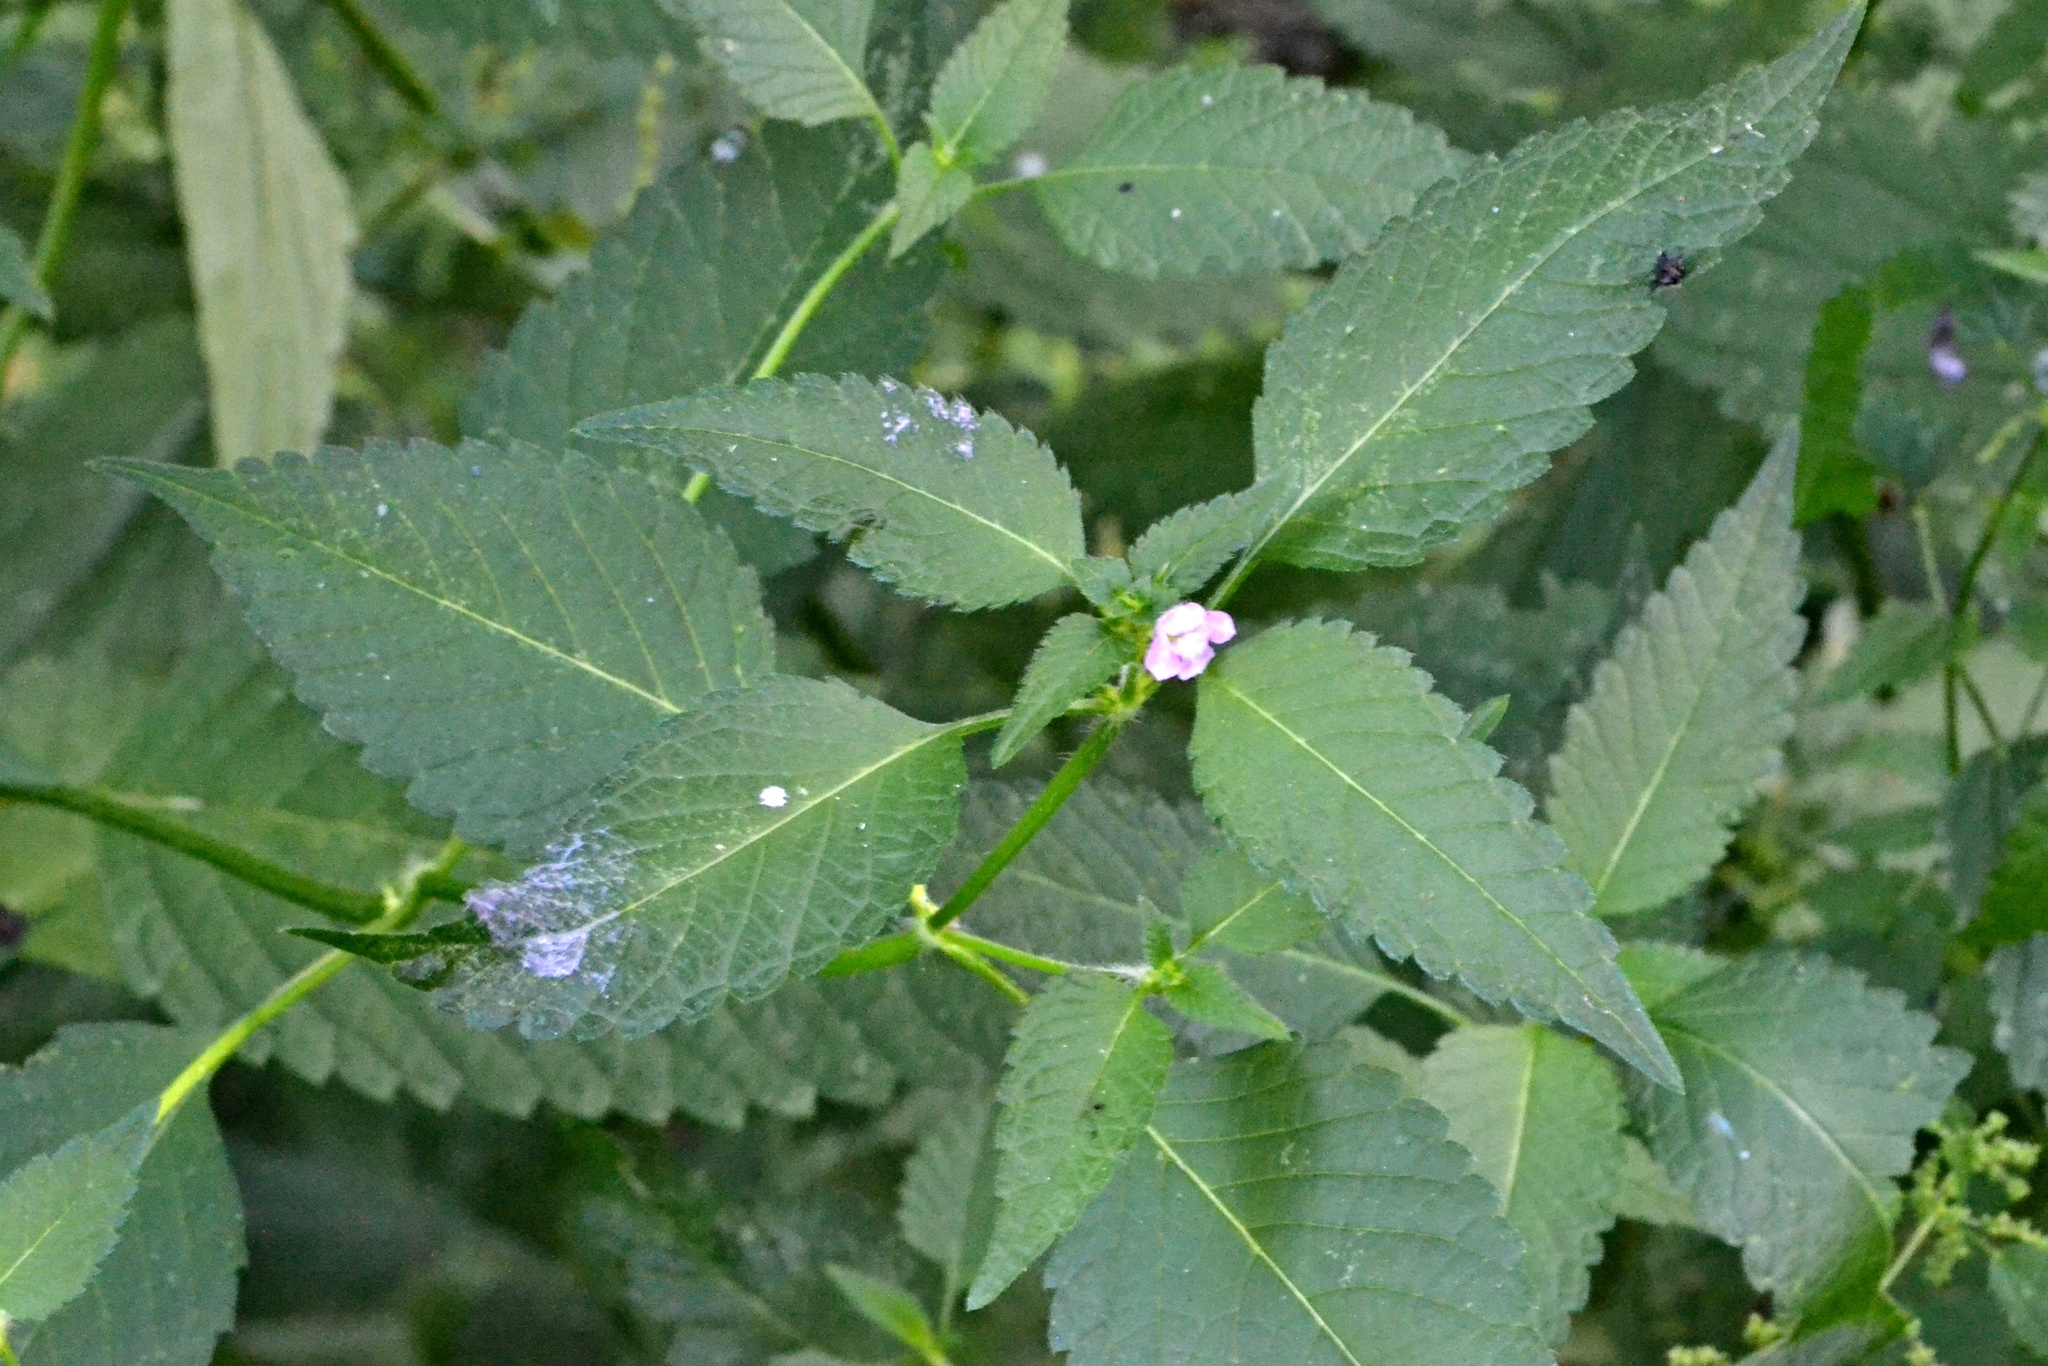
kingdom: Plantae
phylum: Tracheophyta
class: Magnoliopsida
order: Lamiales
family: Lamiaceae
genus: Galeopsis
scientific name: Galeopsis tetrahit
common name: Common hemp-nettle
